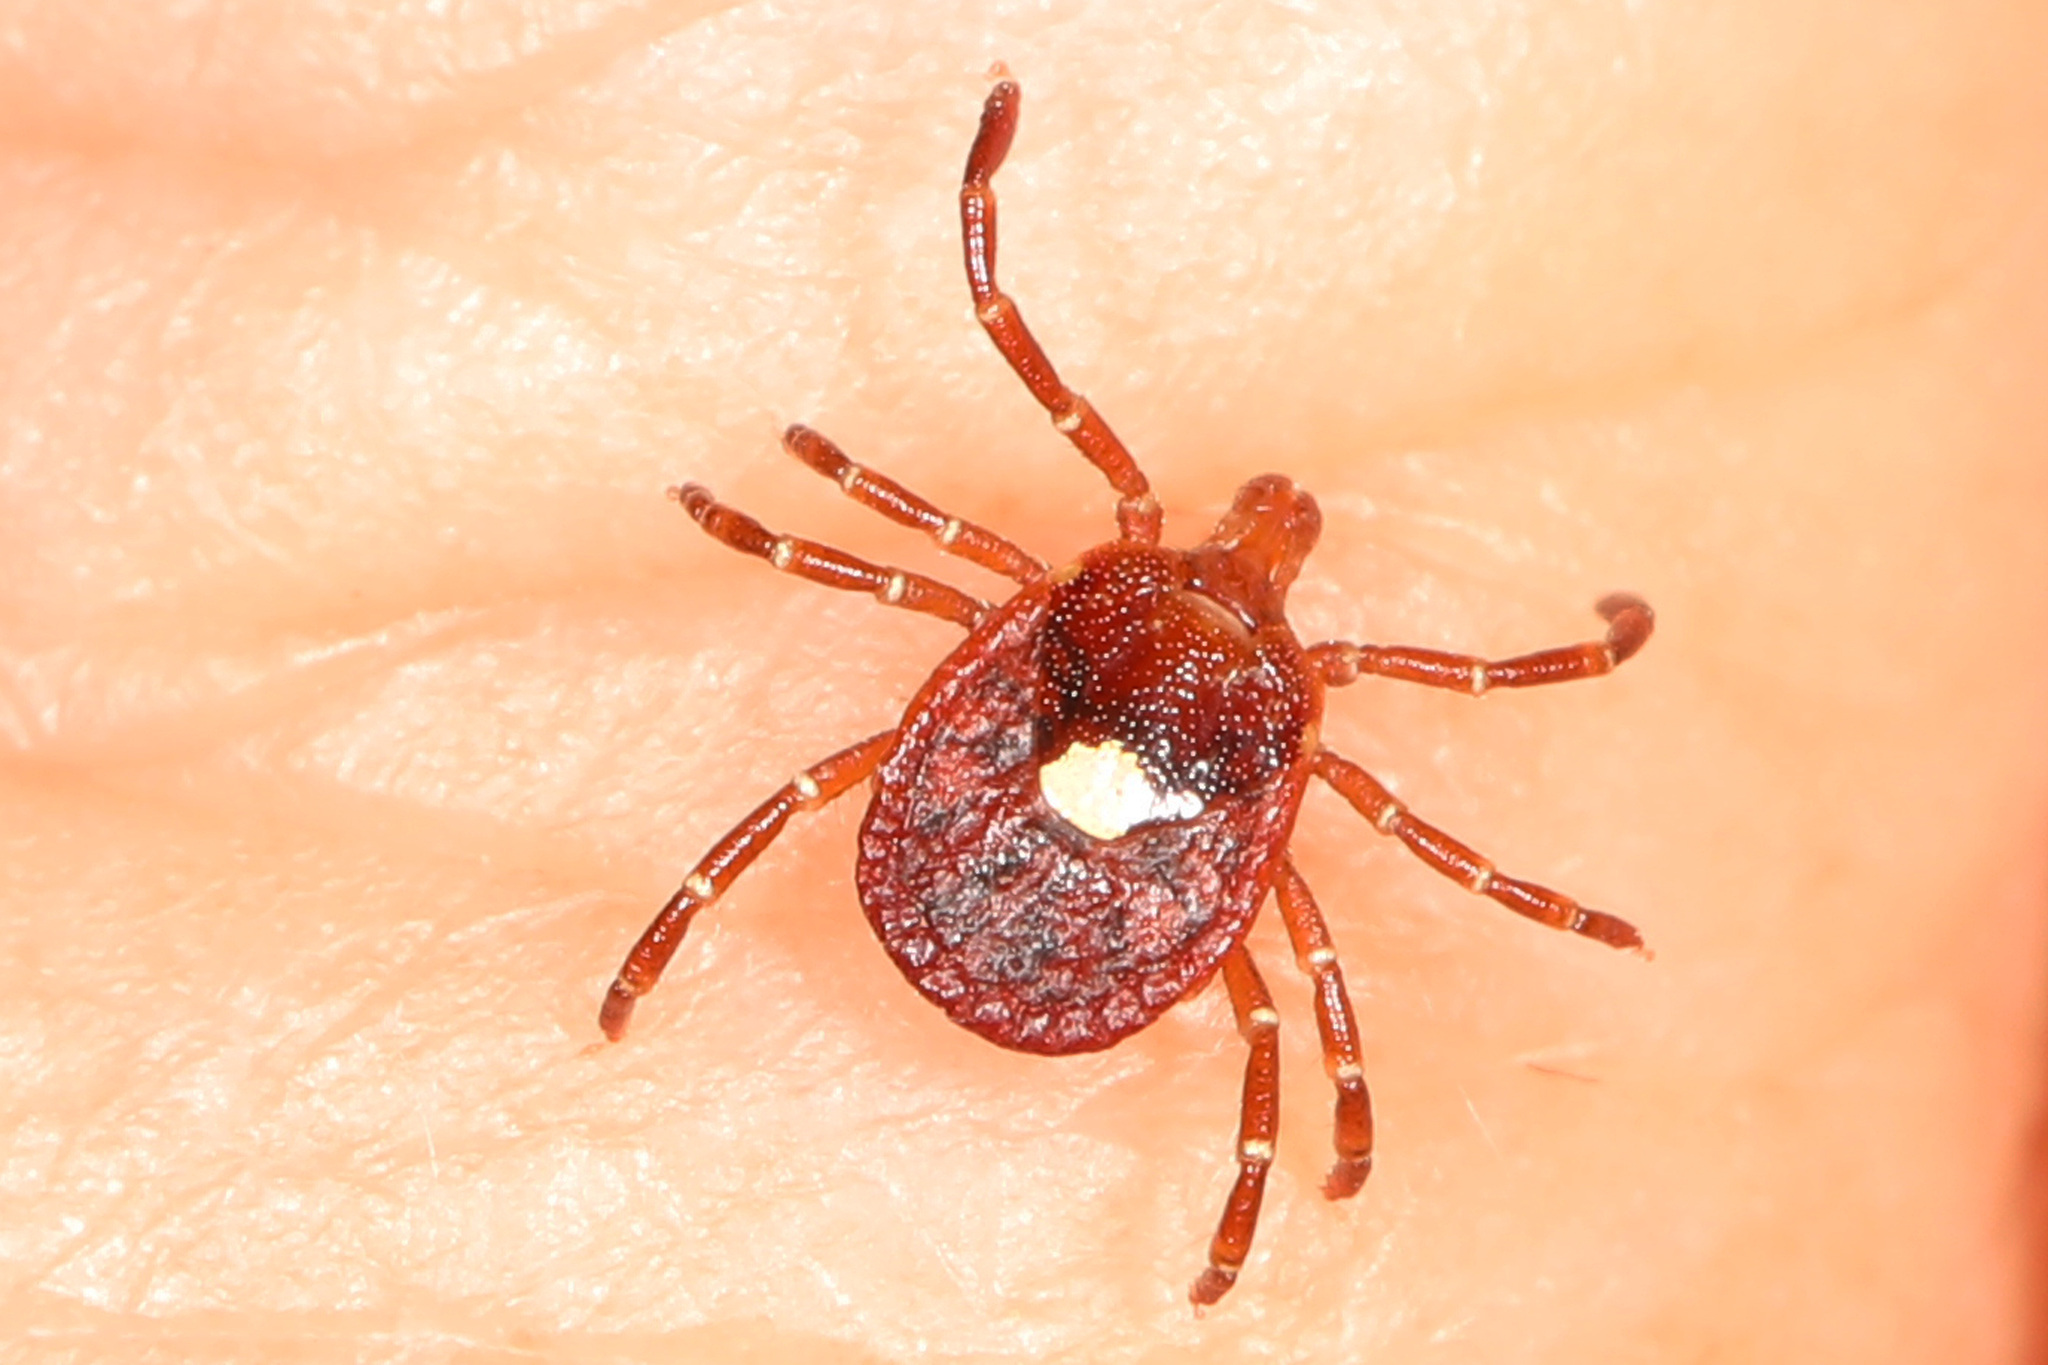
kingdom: Animalia
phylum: Arthropoda
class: Arachnida
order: Ixodida
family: Ixodidae
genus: Amblyomma
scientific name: Amblyomma americanum
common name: Lone star tick
